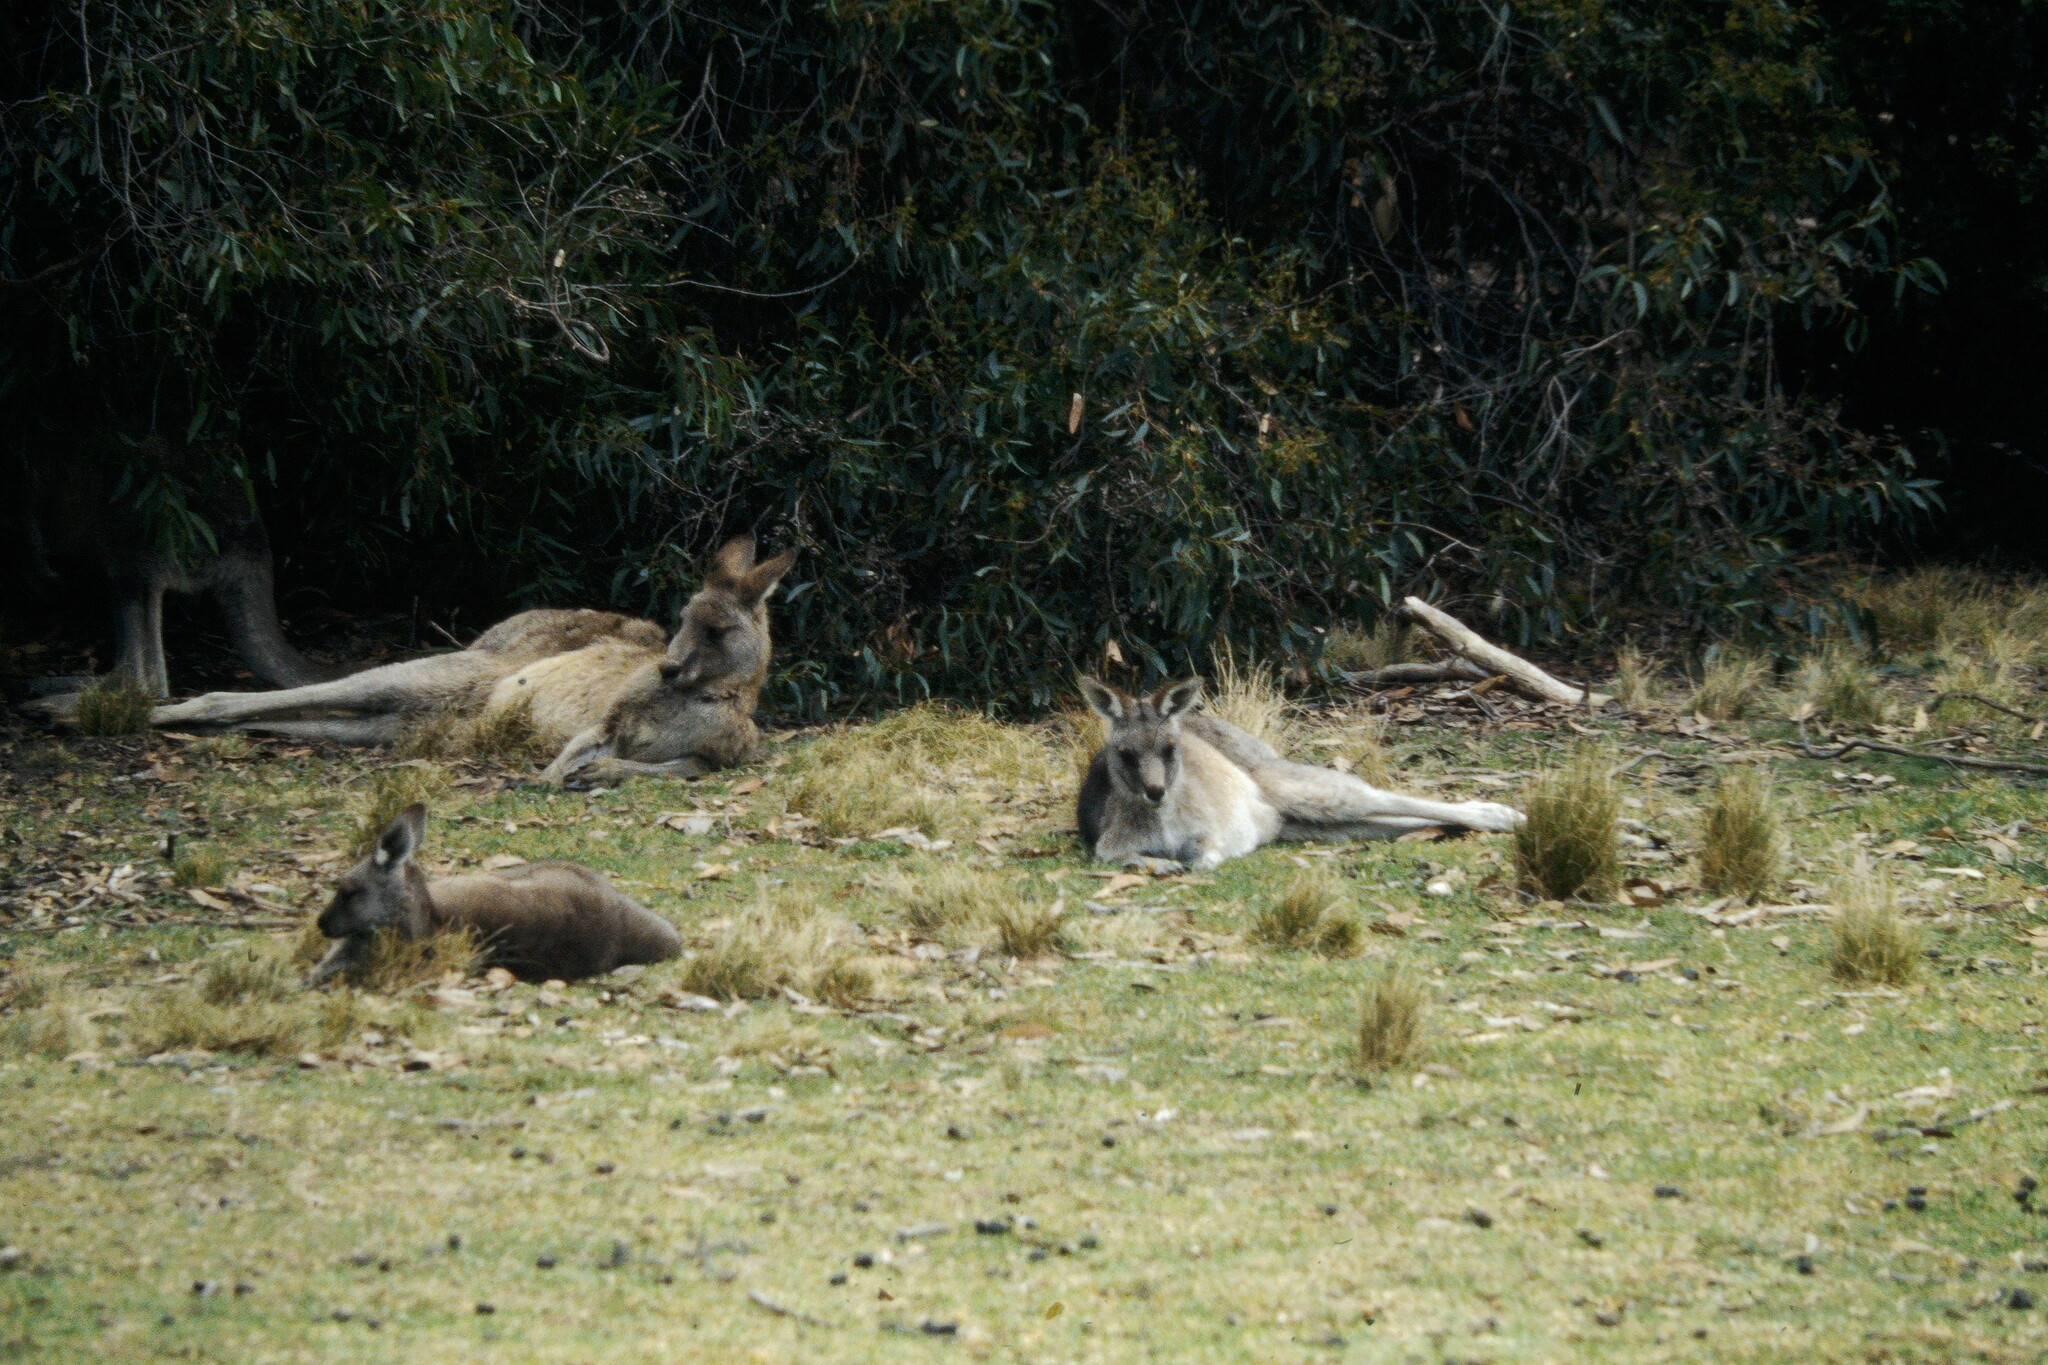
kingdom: Animalia
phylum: Chordata
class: Mammalia
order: Diprotodontia
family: Macropodidae
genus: Macropus
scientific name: Macropus giganteus
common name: Eastern grey kangaroo
